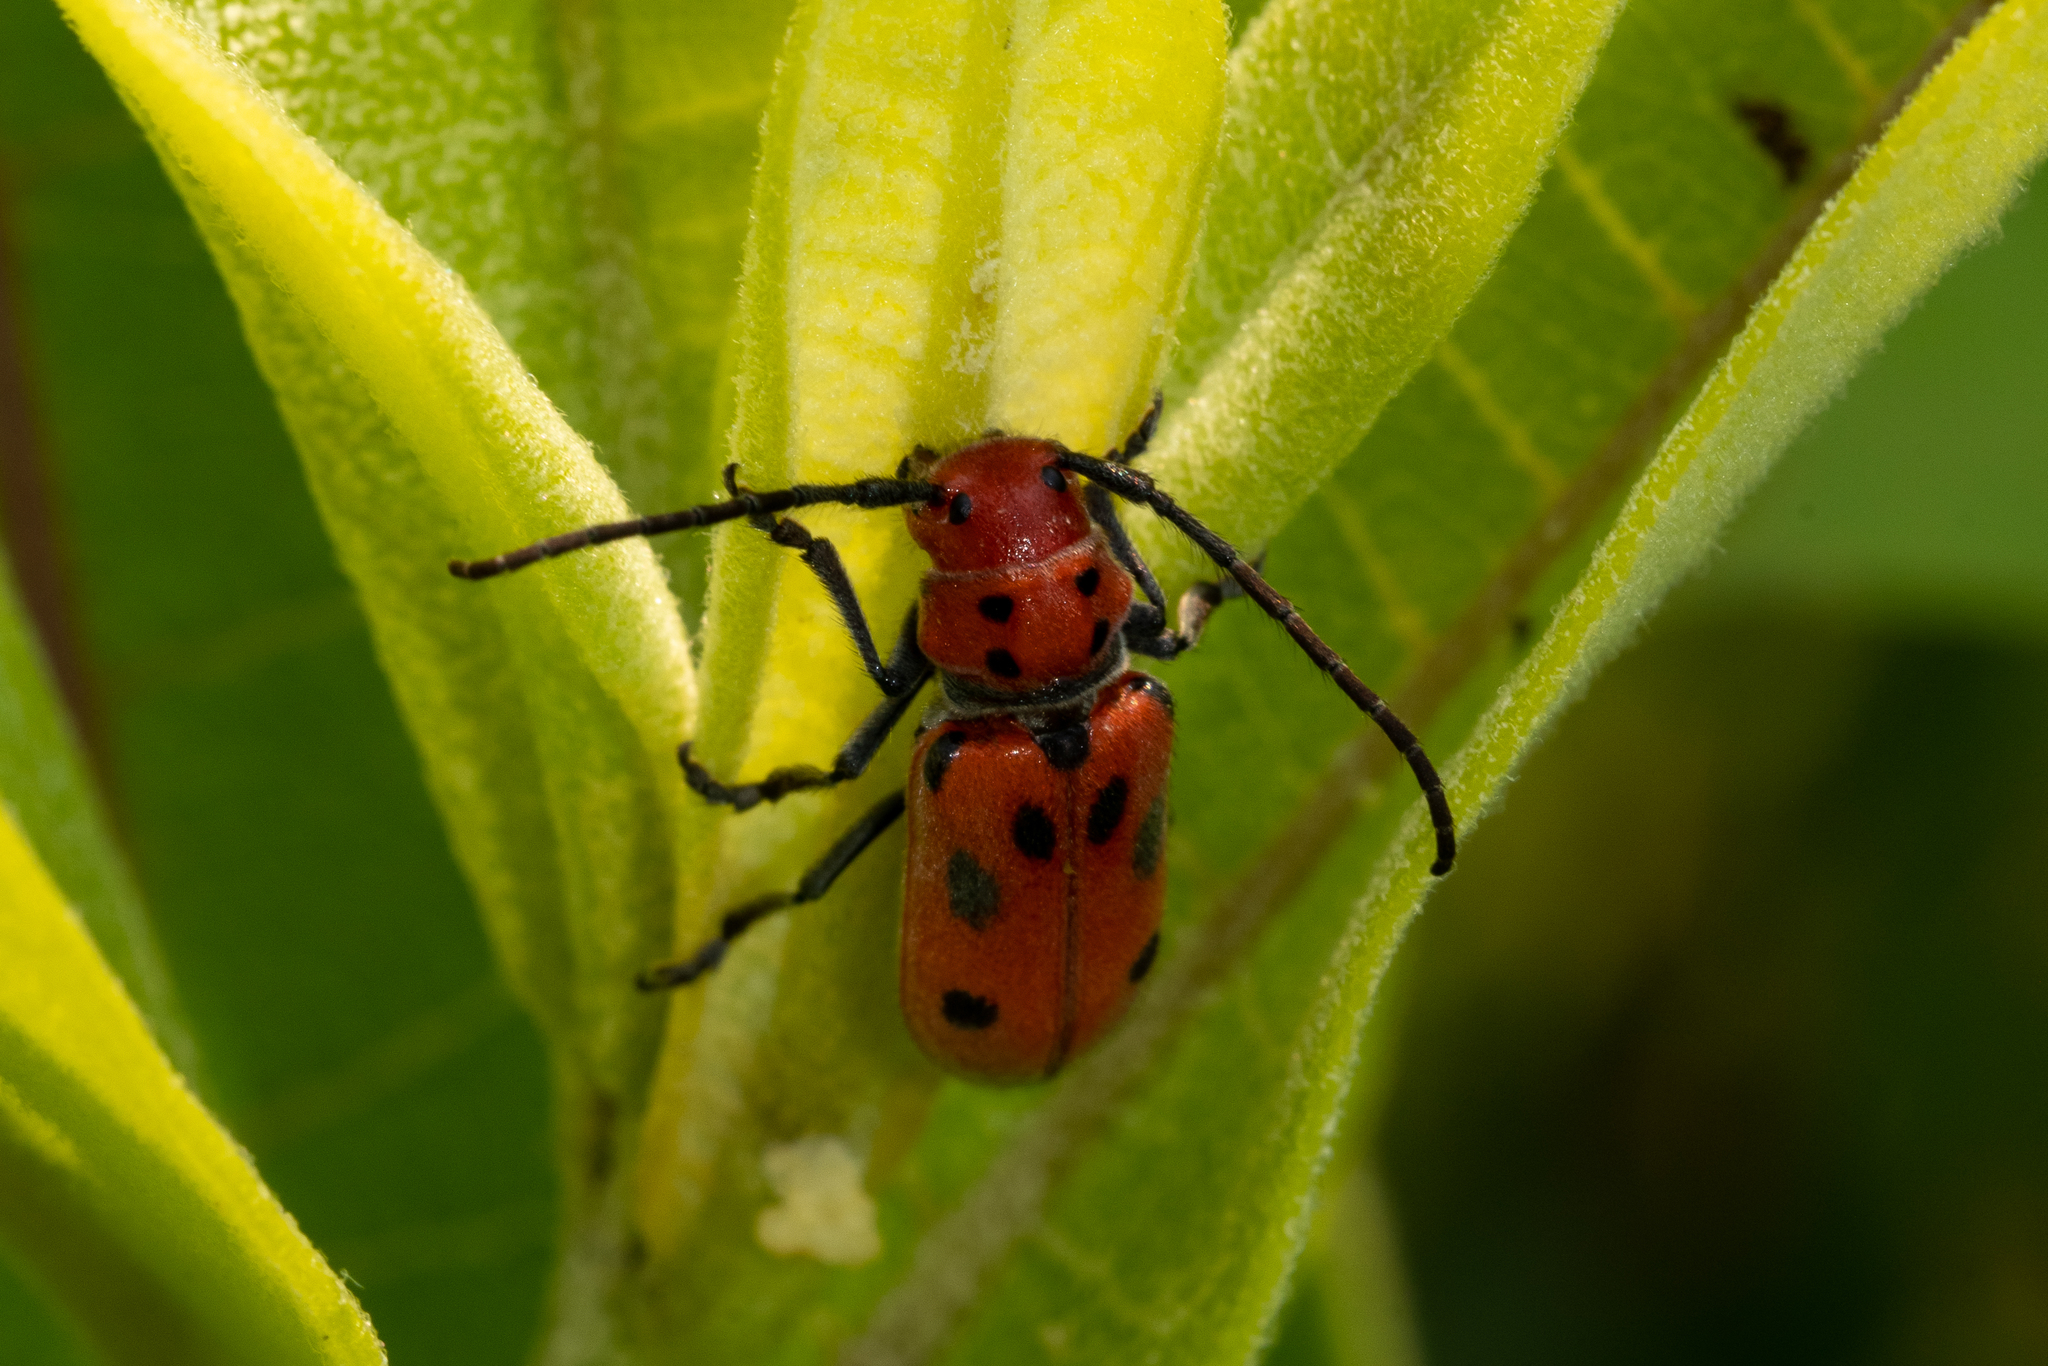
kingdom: Animalia
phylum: Arthropoda
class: Insecta
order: Coleoptera
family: Cerambycidae
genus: Tetraopes
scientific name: Tetraopes tetrophthalmus
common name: Red milkweed beetle
